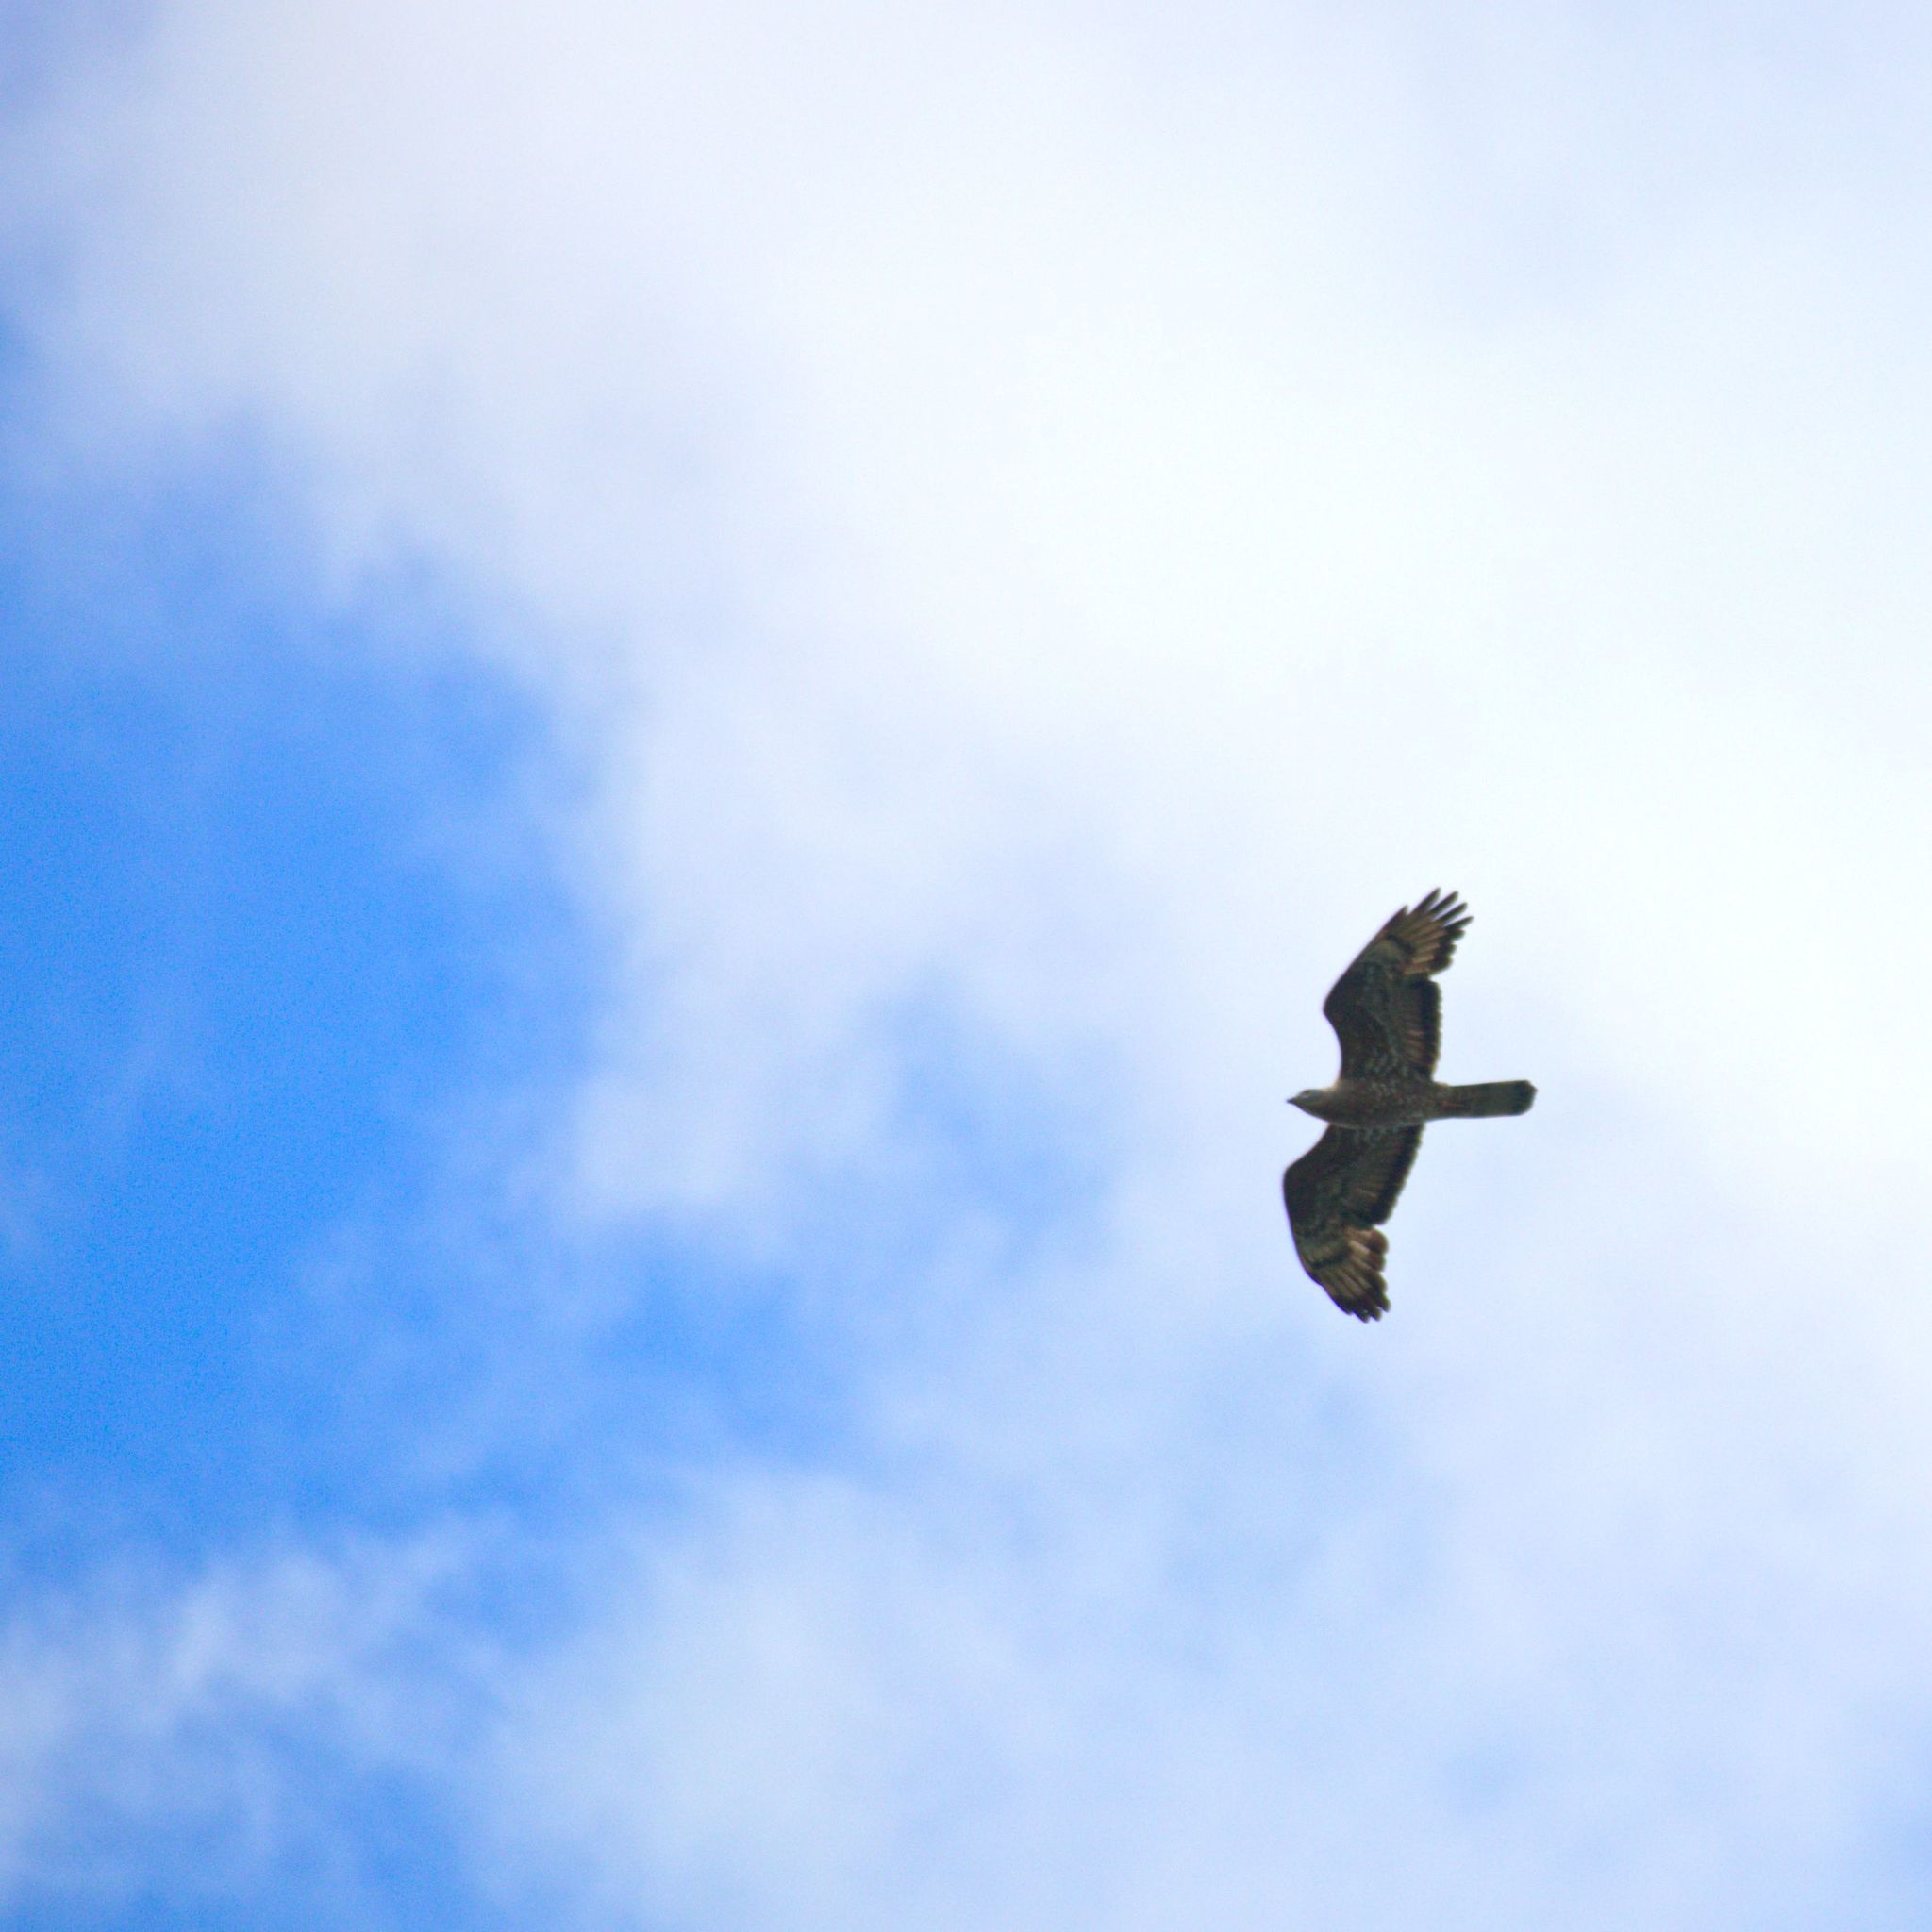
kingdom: Animalia
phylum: Chordata
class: Aves
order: Accipitriformes
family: Accipitridae
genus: Pernis
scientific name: Pernis apivorus
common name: European honey buzzard
